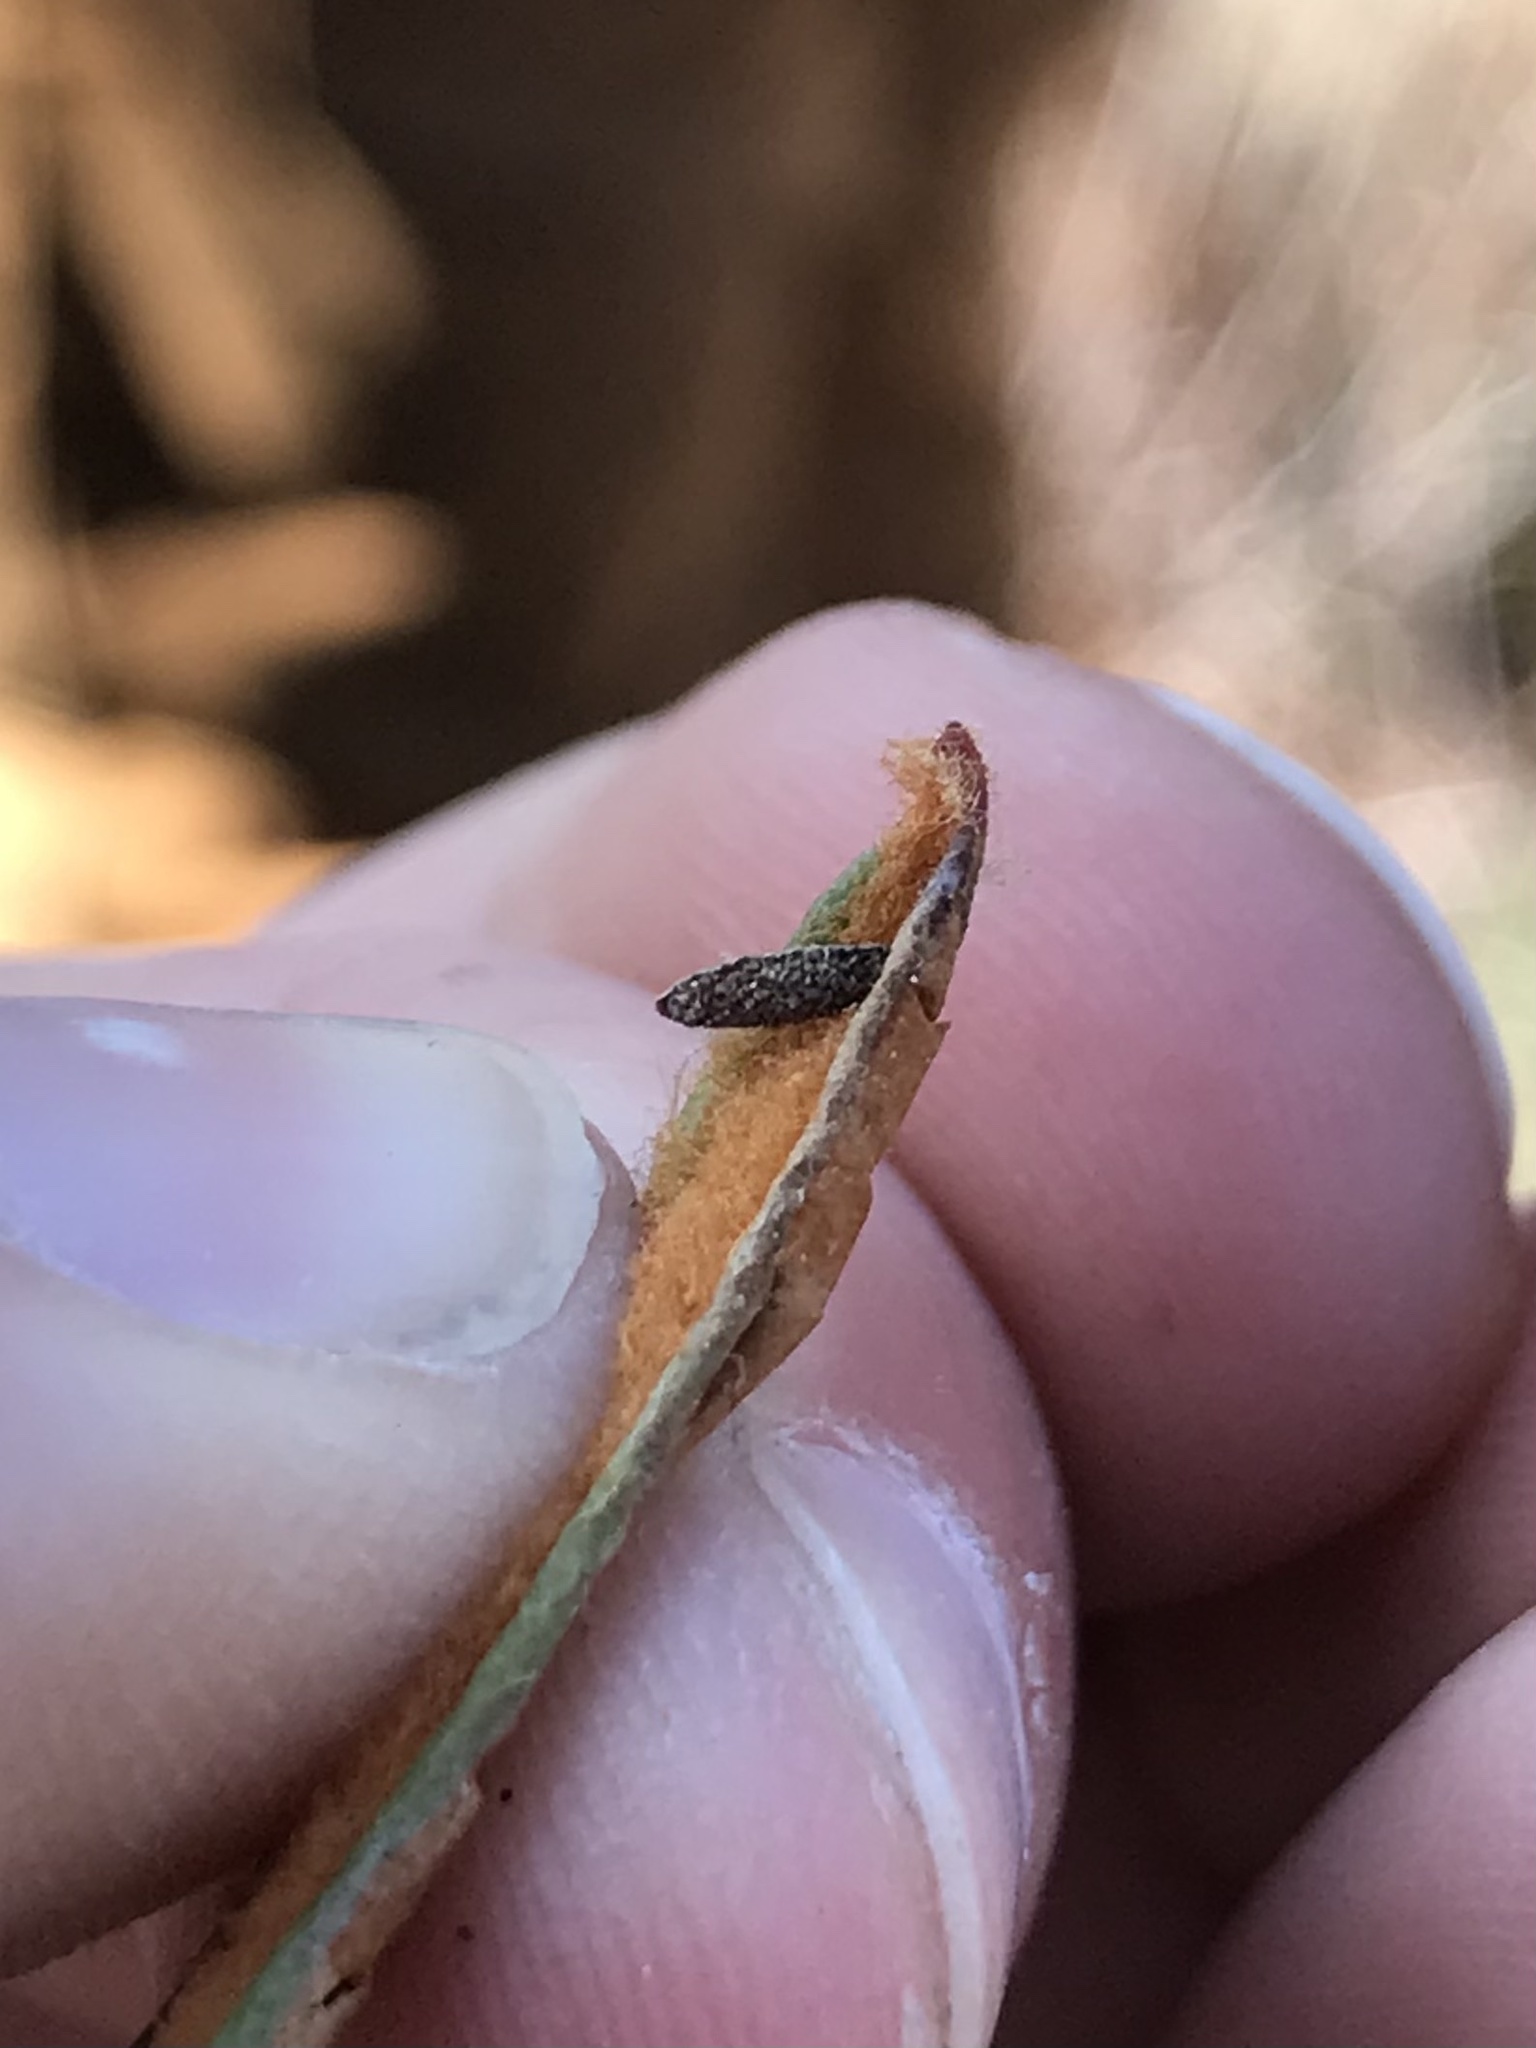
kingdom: Animalia
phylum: Arthropoda
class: Insecta
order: Lepidoptera
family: Coleophoridae
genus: Coleophora
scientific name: Coleophora affiliatella
